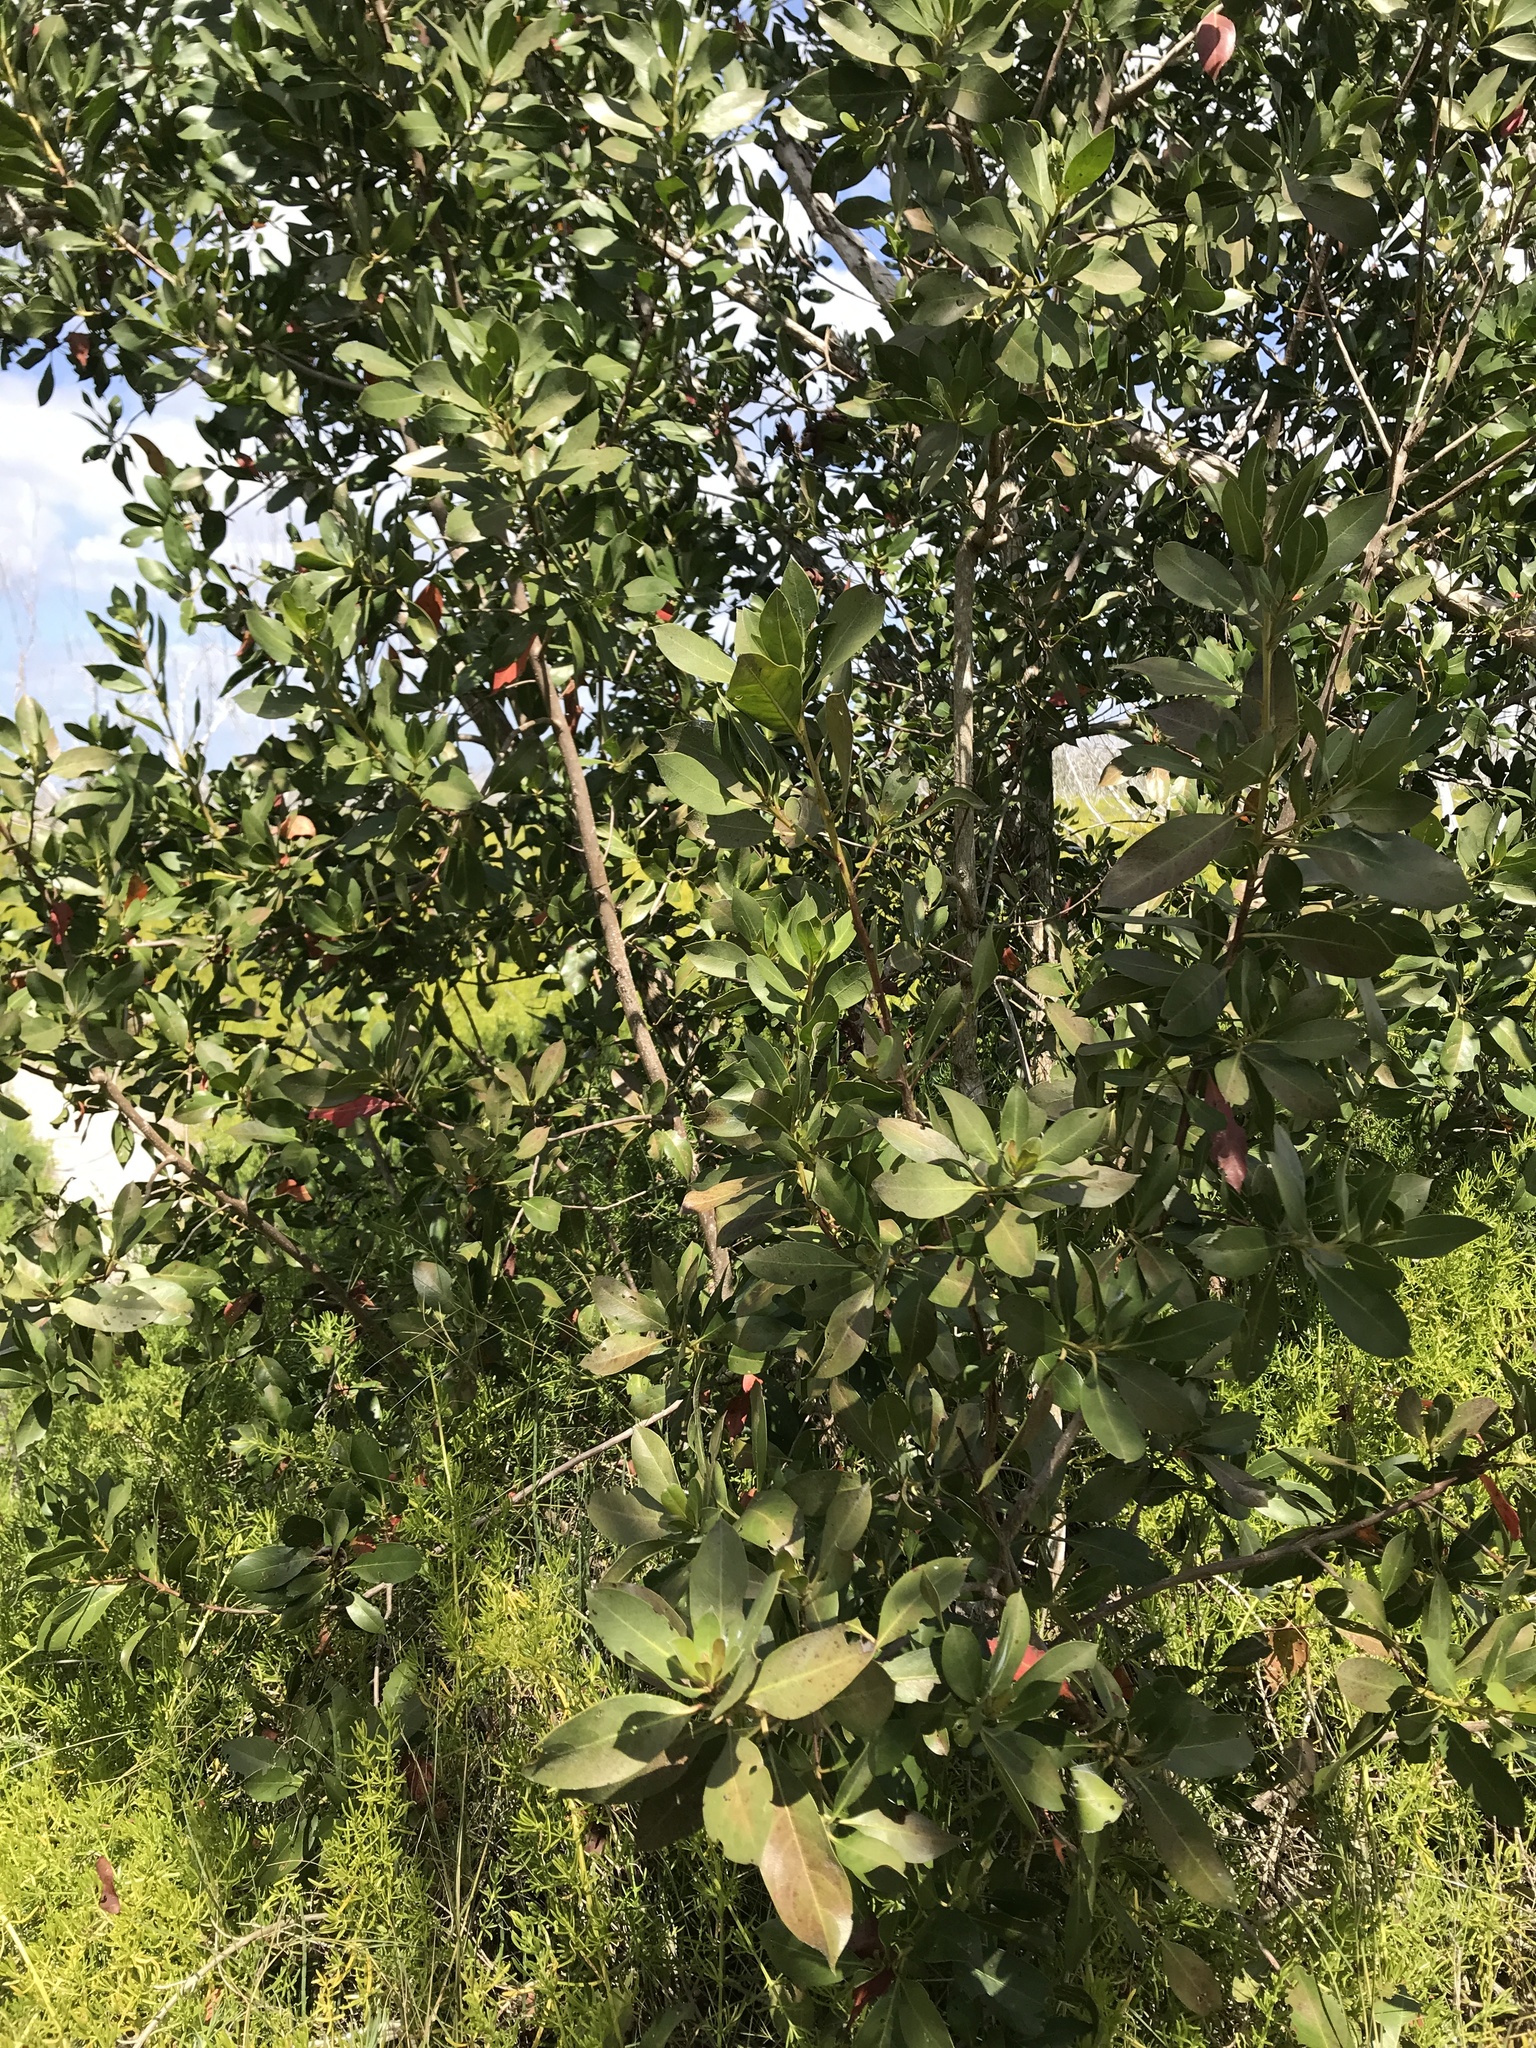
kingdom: Plantae
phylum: Tracheophyta
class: Magnoliopsida
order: Myrtales
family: Combretaceae
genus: Conocarpus
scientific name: Conocarpus erectus
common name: Button mangrove
